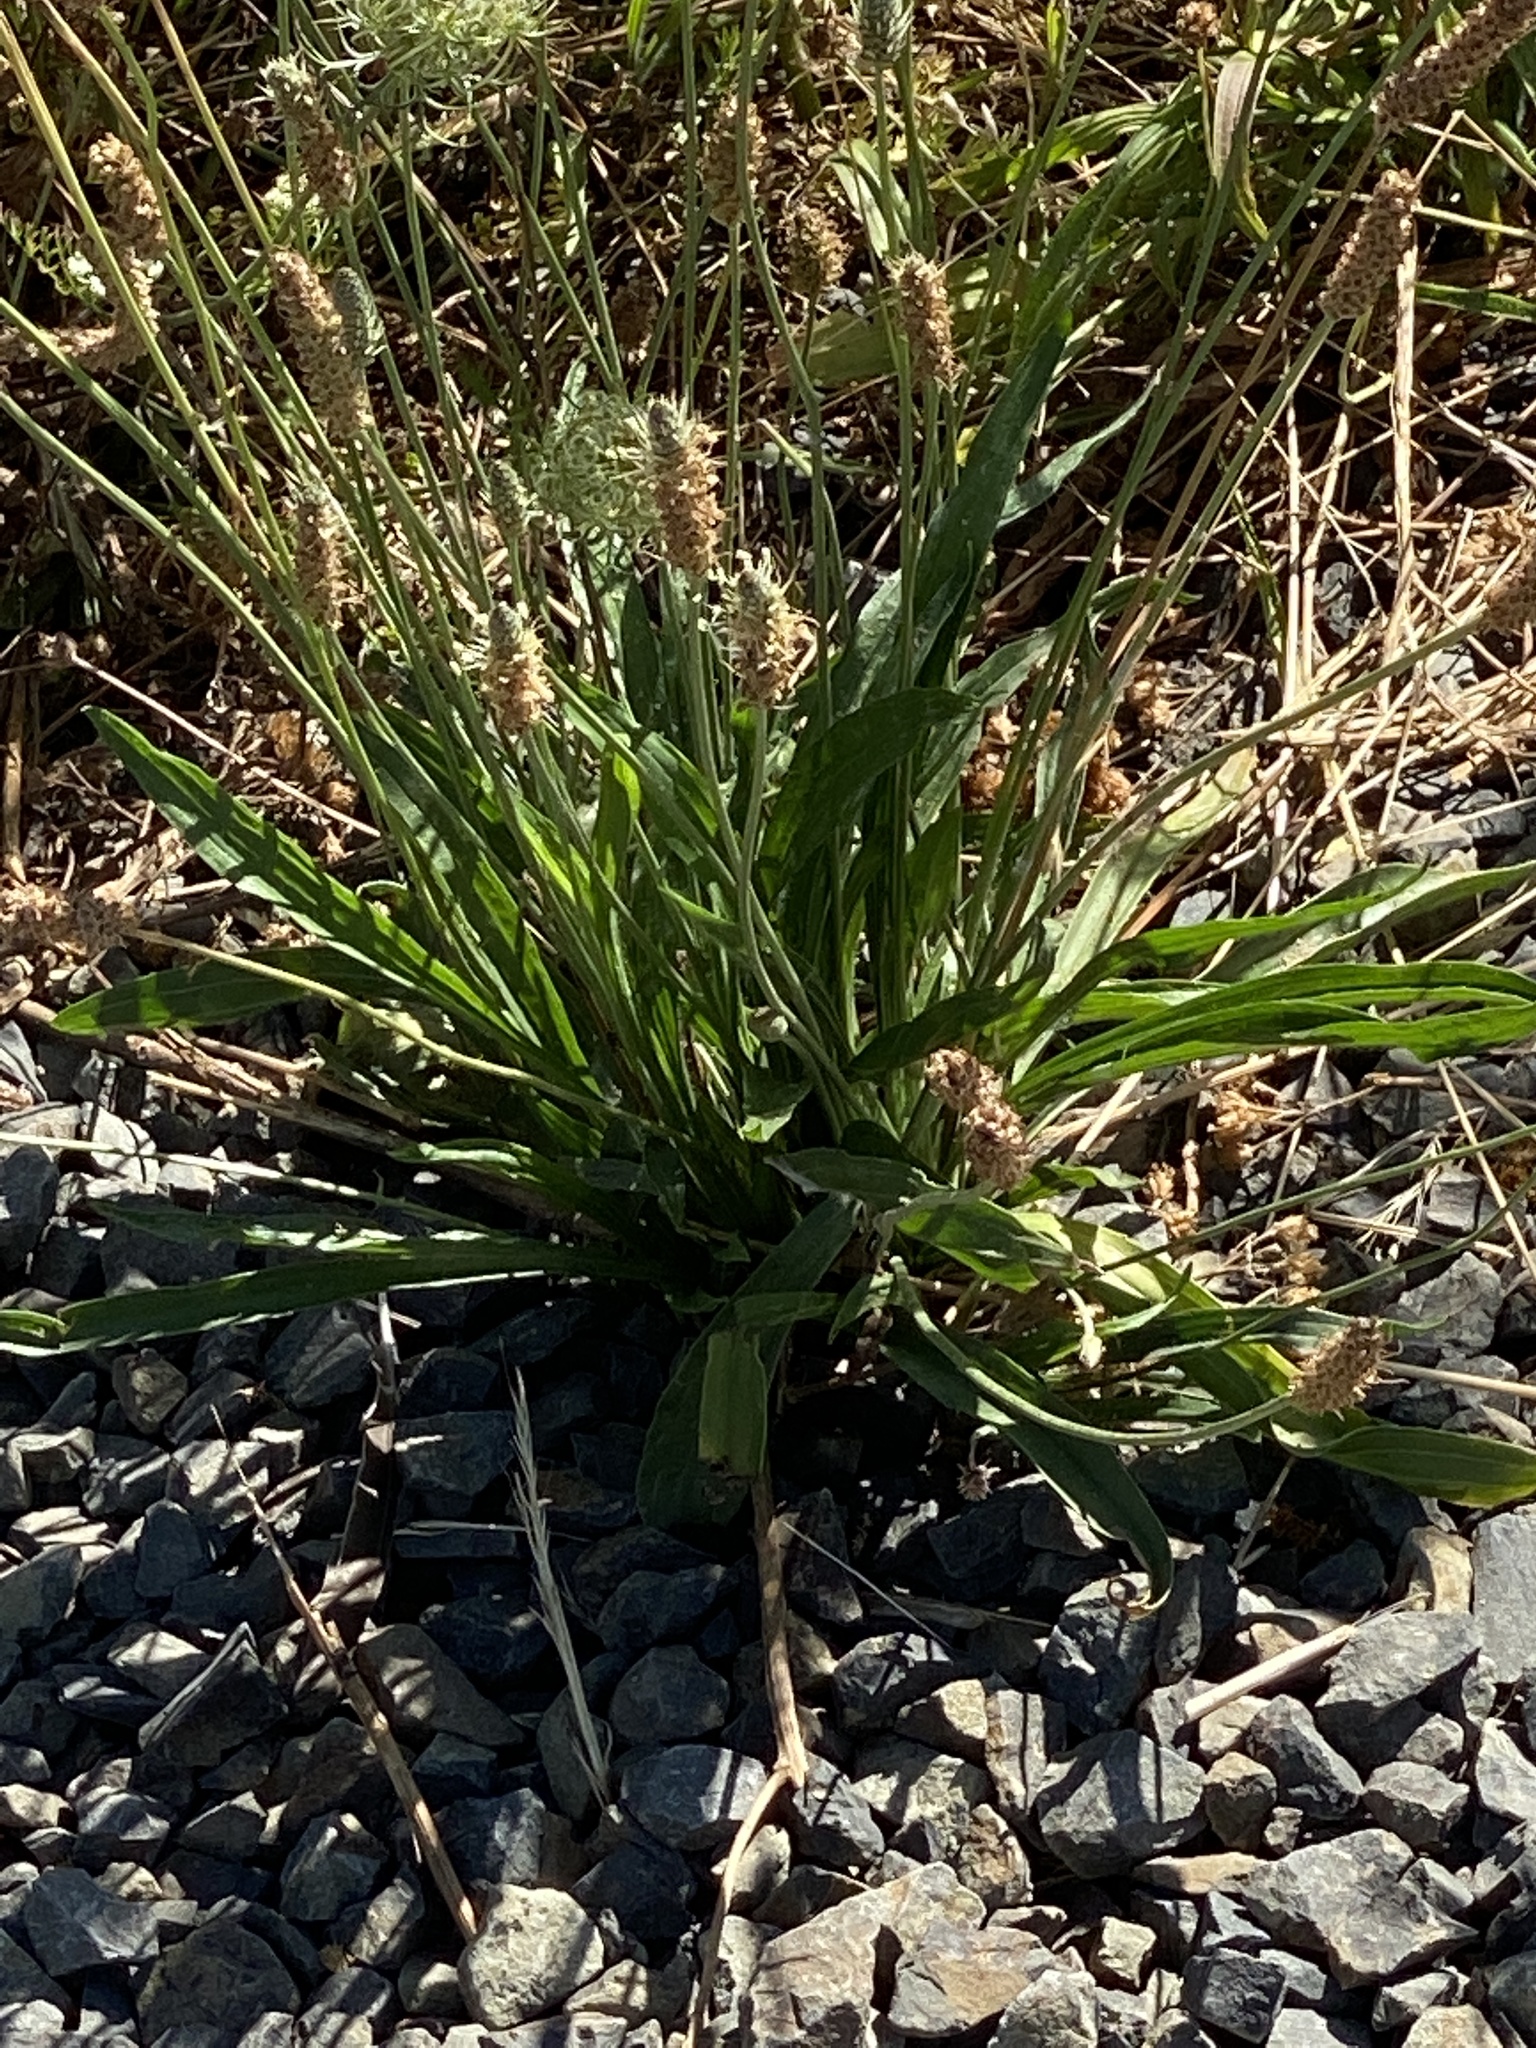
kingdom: Plantae
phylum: Tracheophyta
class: Magnoliopsida
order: Lamiales
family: Plantaginaceae
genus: Plantago
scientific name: Plantago lanceolata
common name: Ribwort plantain
